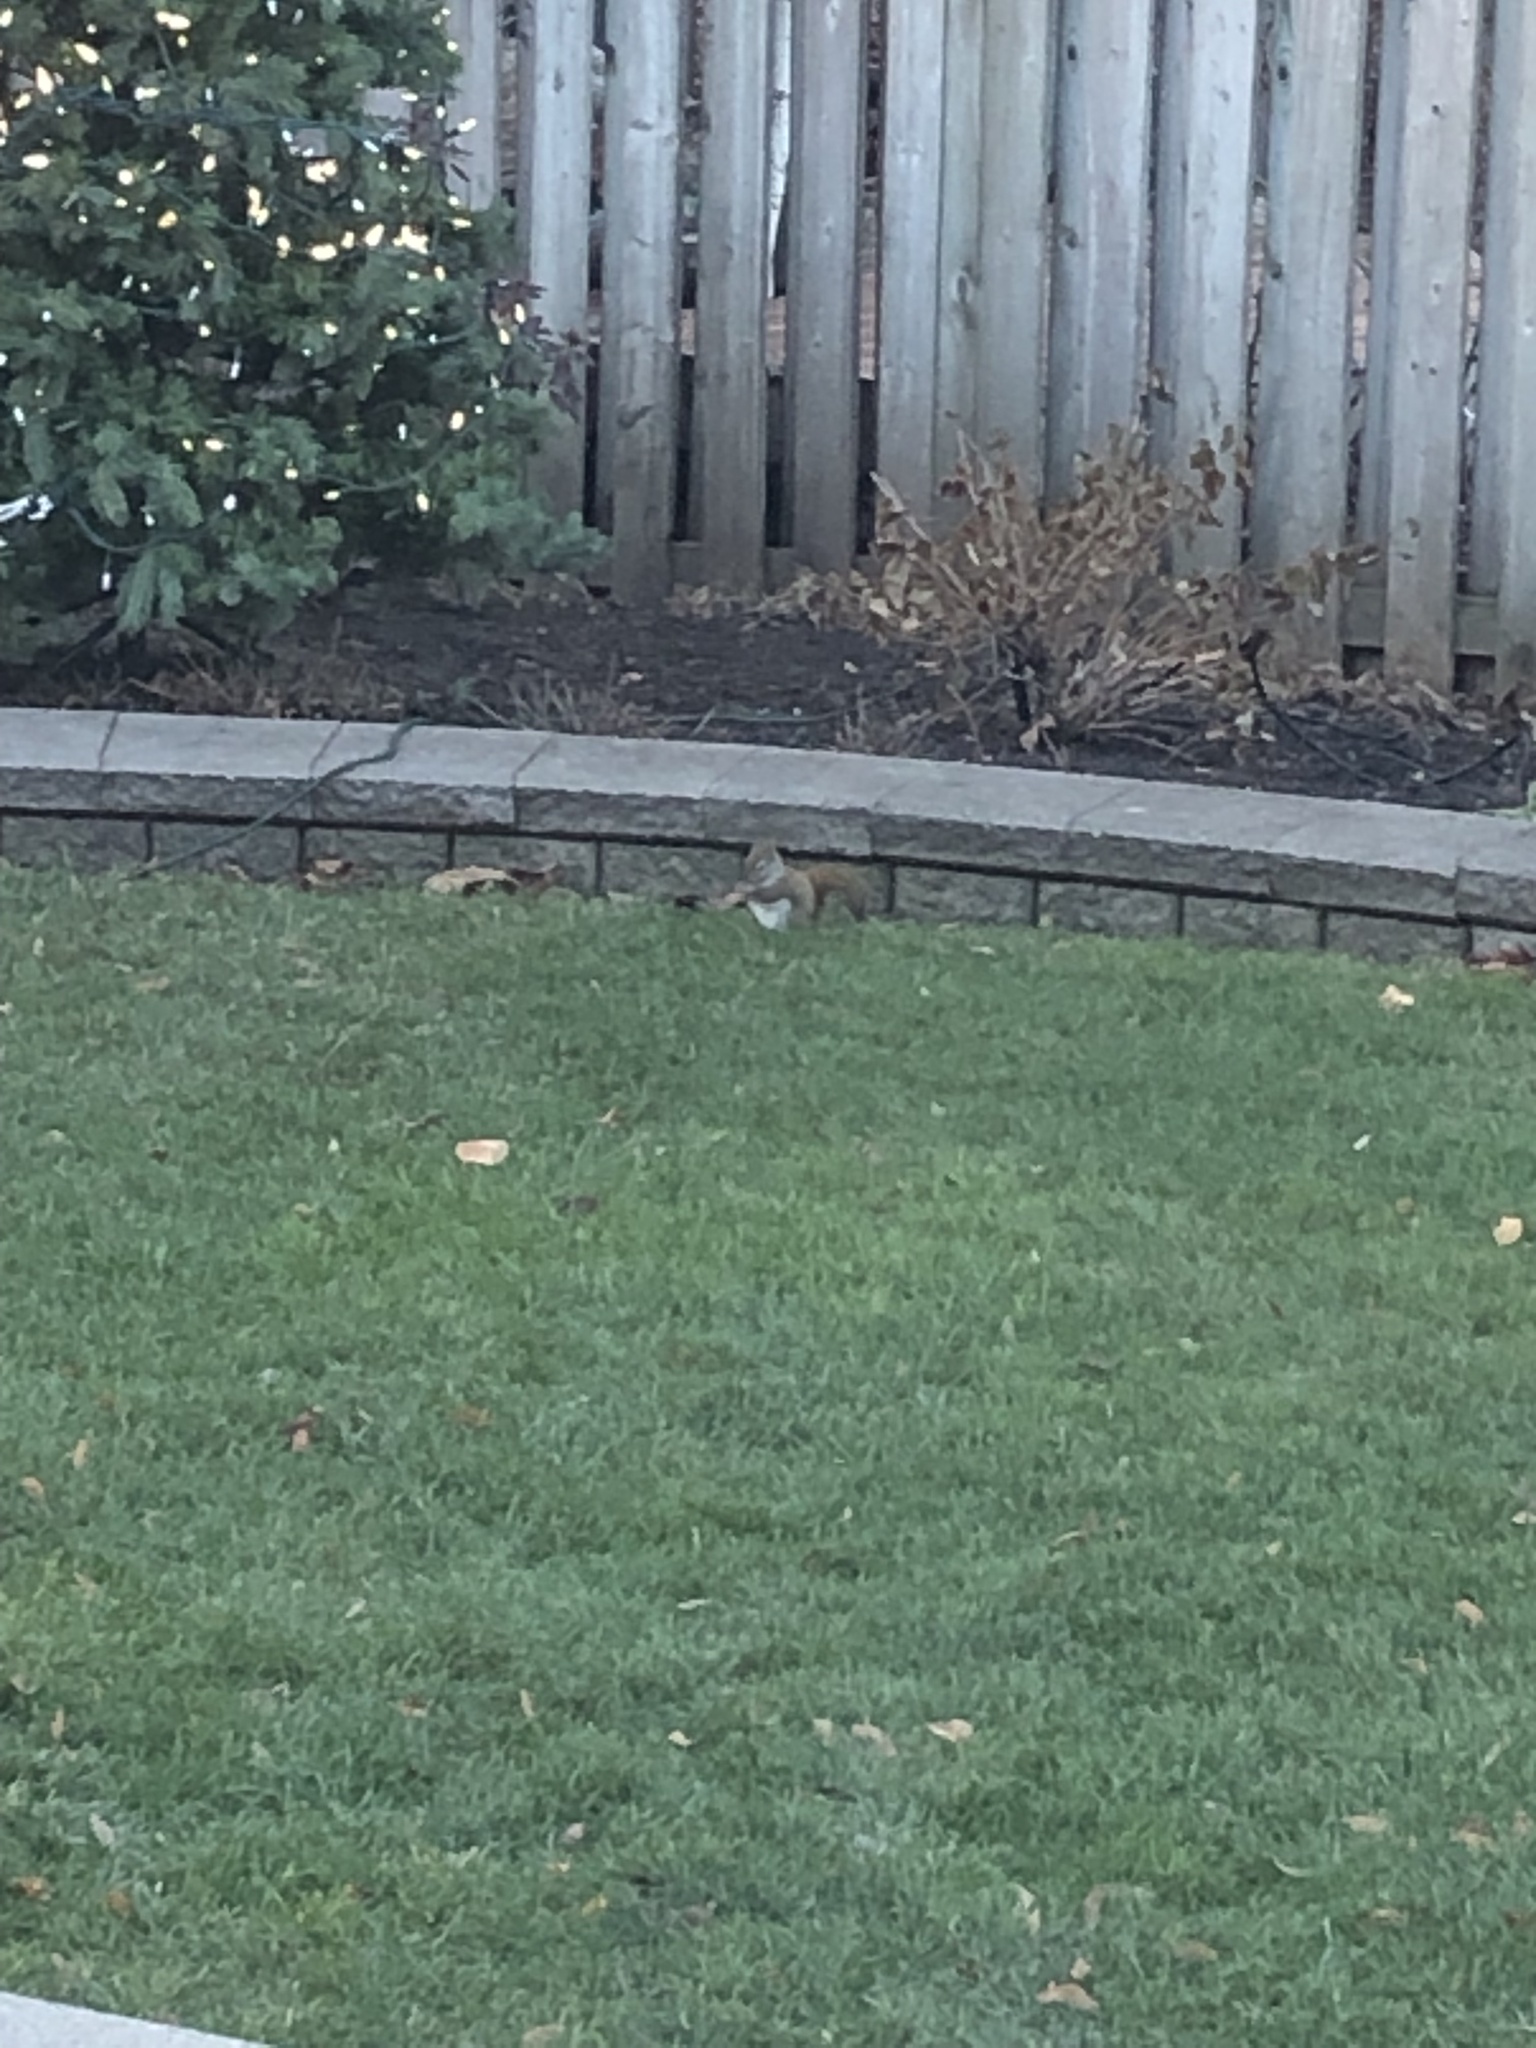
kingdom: Animalia
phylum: Chordata
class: Mammalia
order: Rodentia
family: Sciuridae
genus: Tamiasciurus
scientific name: Tamiasciurus hudsonicus
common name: Red squirrel
